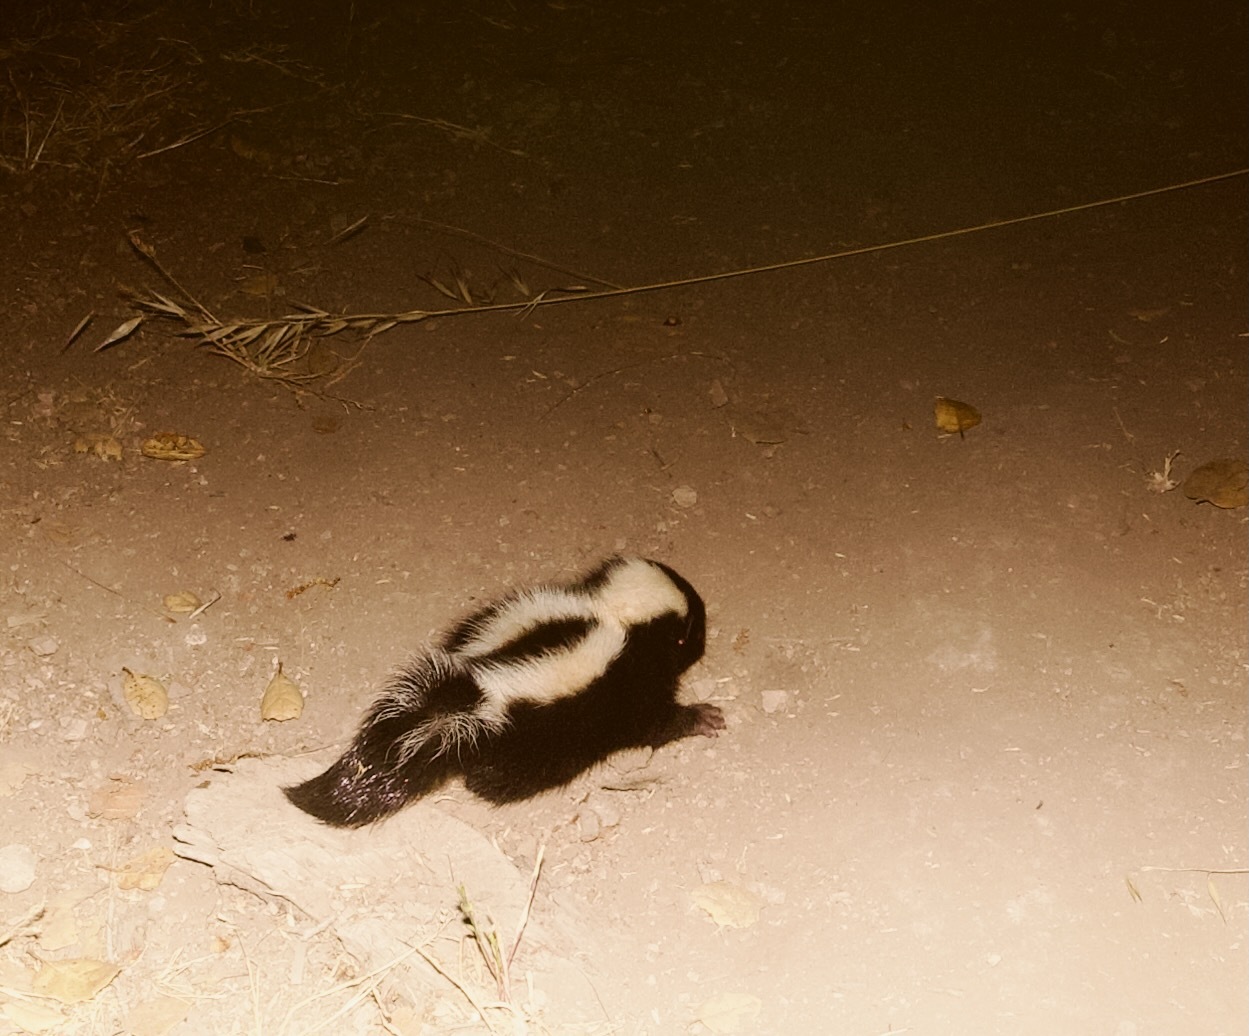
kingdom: Animalia
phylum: Chordata
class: Mammalia
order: Carnivora
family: Mephitidae
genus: Mephitis
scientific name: Mephitis mephitis
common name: Striped skunk
